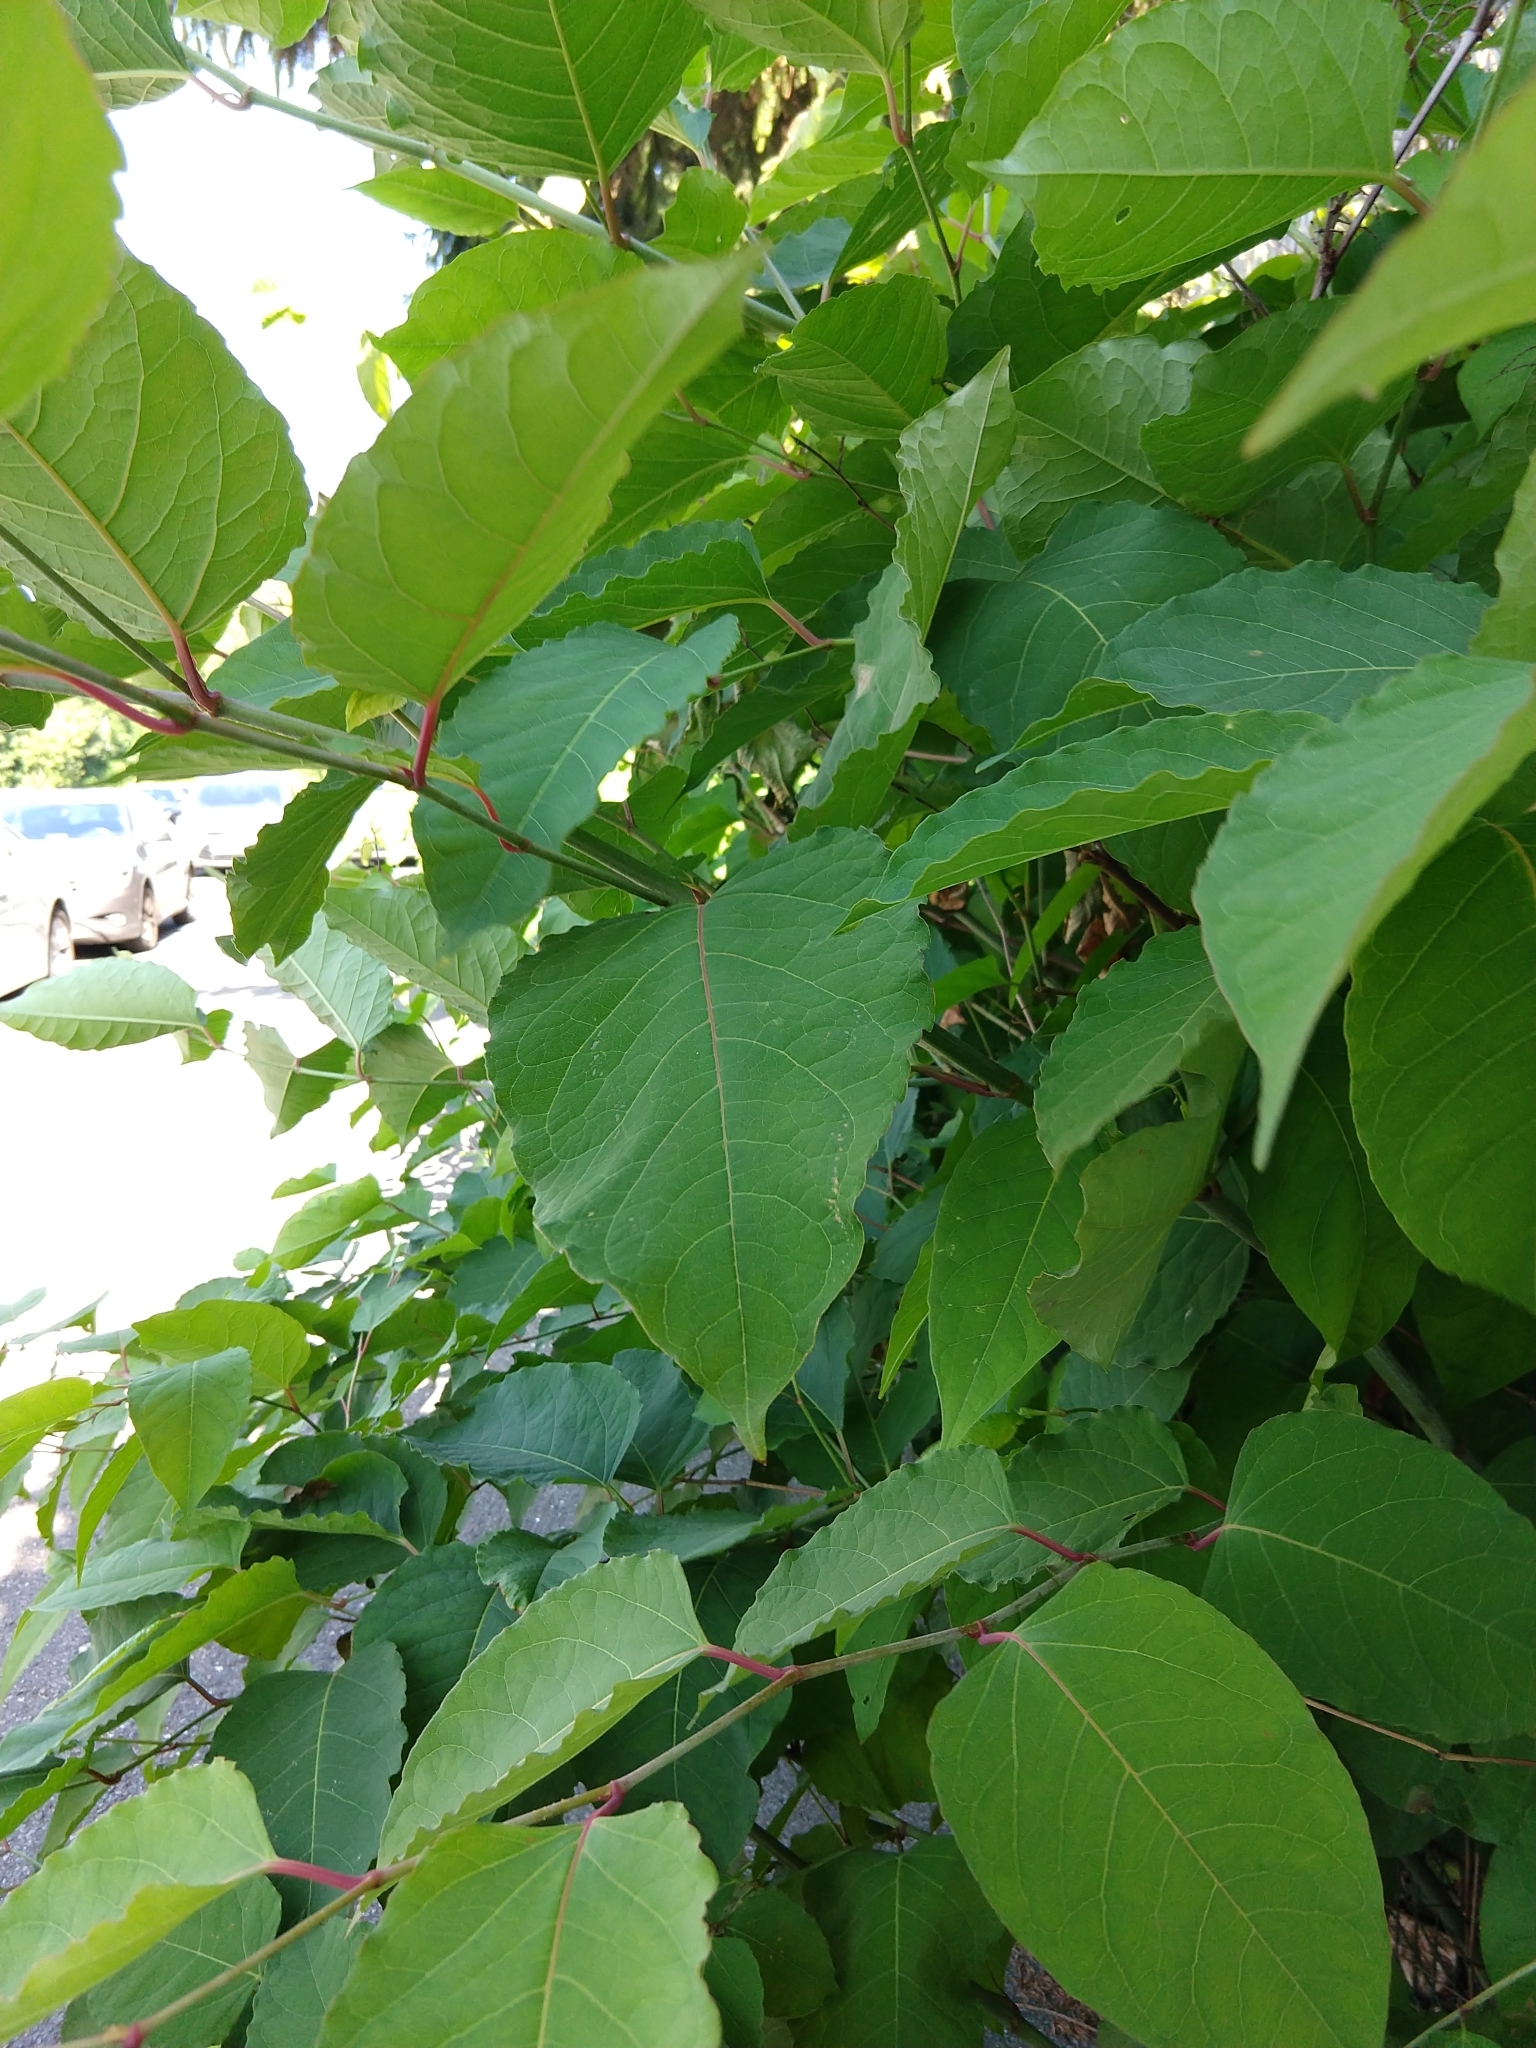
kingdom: Plantae
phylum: Tracheophyta
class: Magnoliopsida
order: Caryophyllales
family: Polygonaceae
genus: Reynoutria
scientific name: Reynoutria japonica
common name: Japanese knotweed
